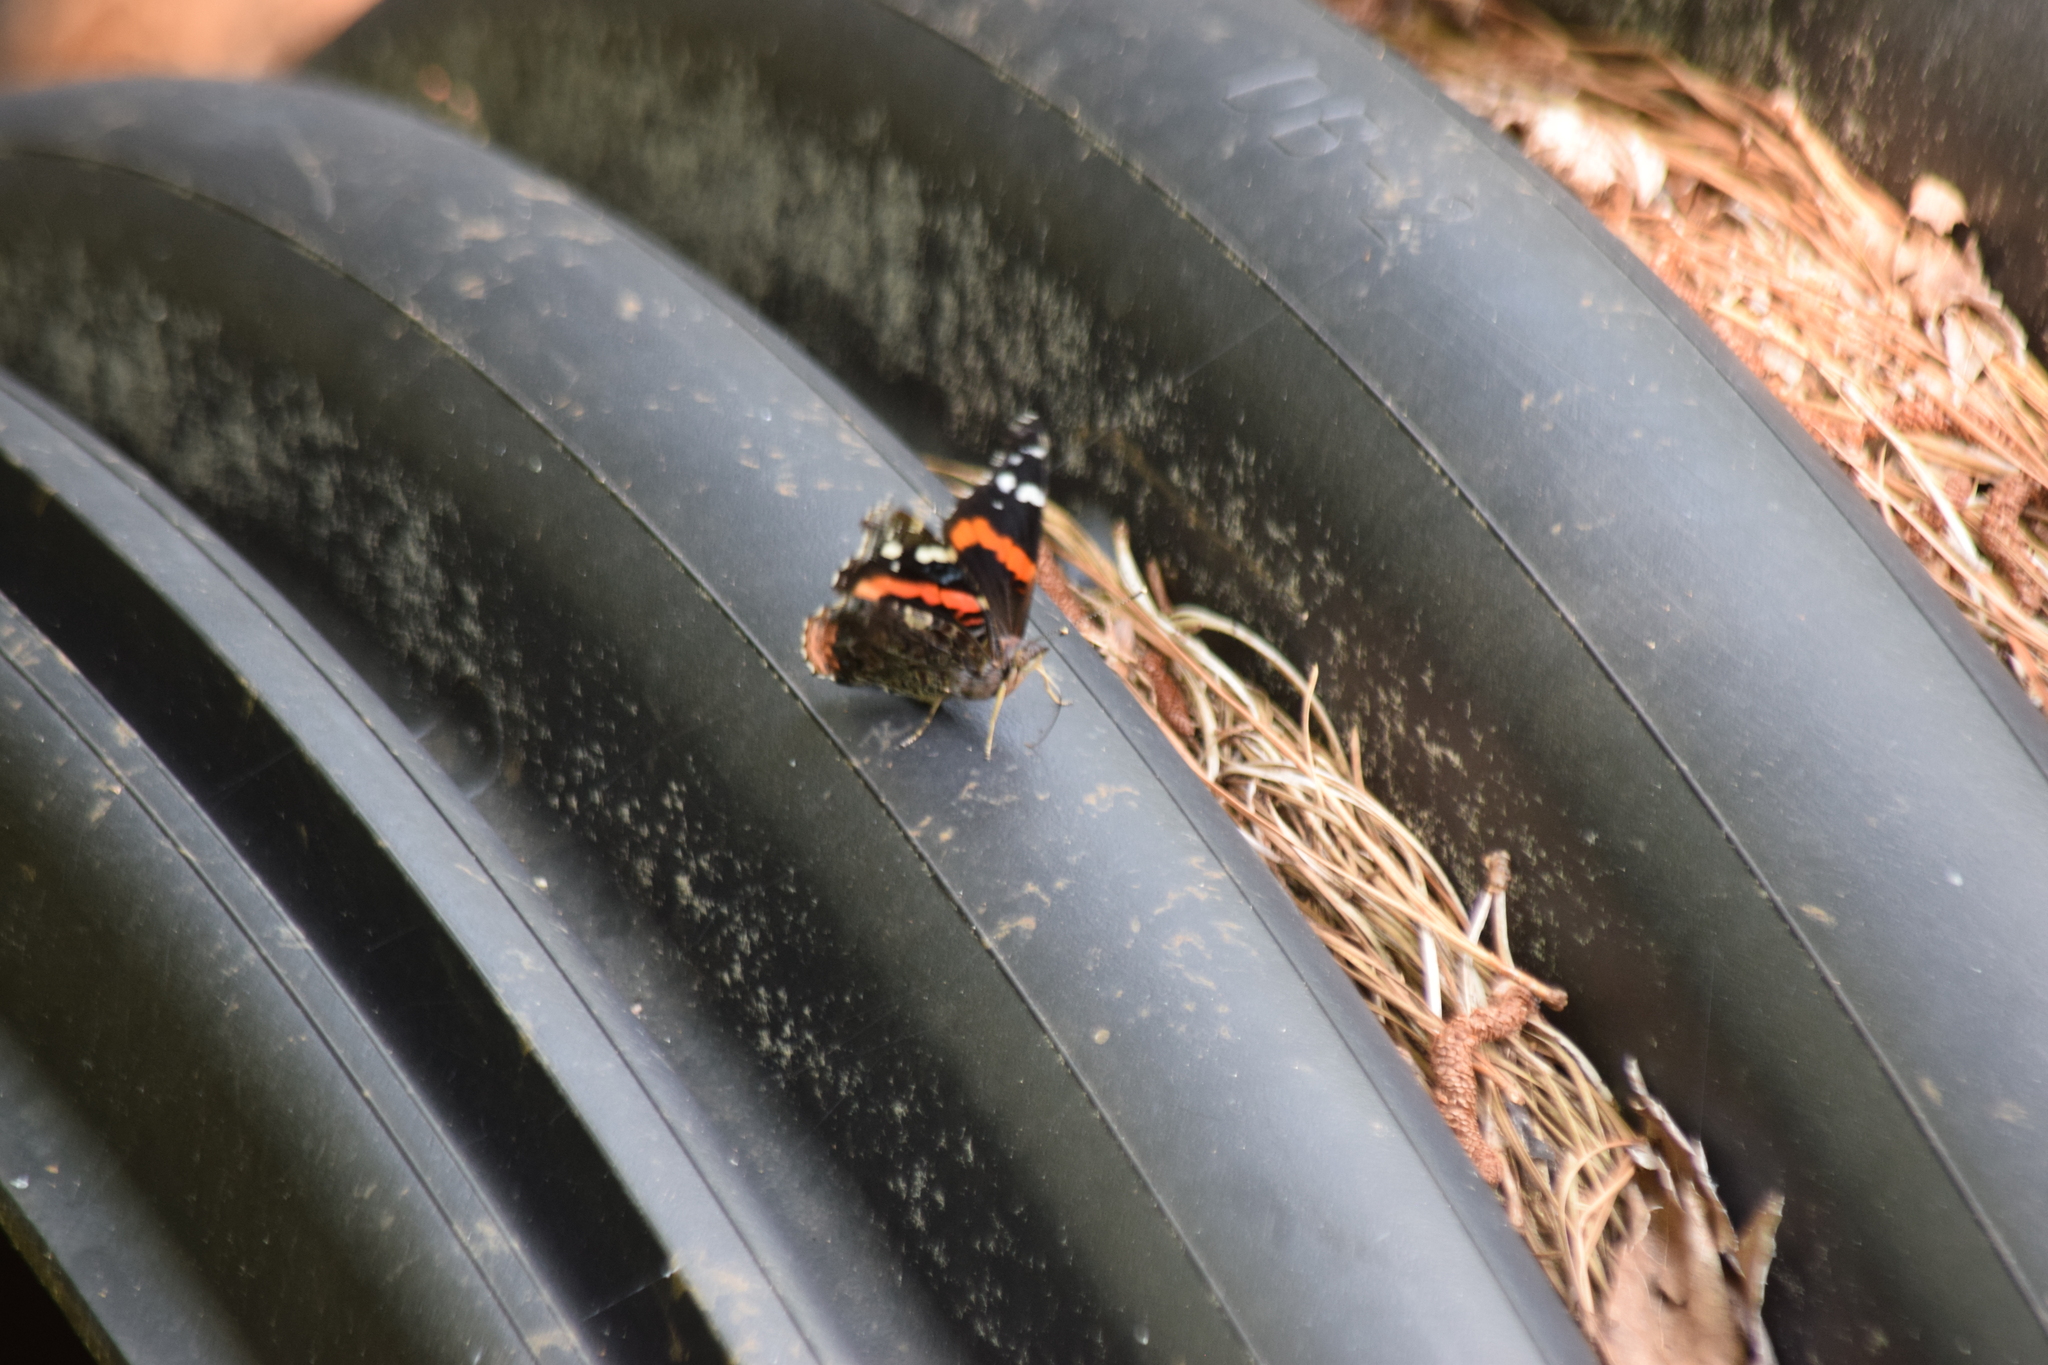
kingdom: Animalia
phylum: Arthropoda
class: Insecta
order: Lepidoptera
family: Nymphalidae
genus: Vanessa
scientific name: Vanessa atalanta
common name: Red admiral
